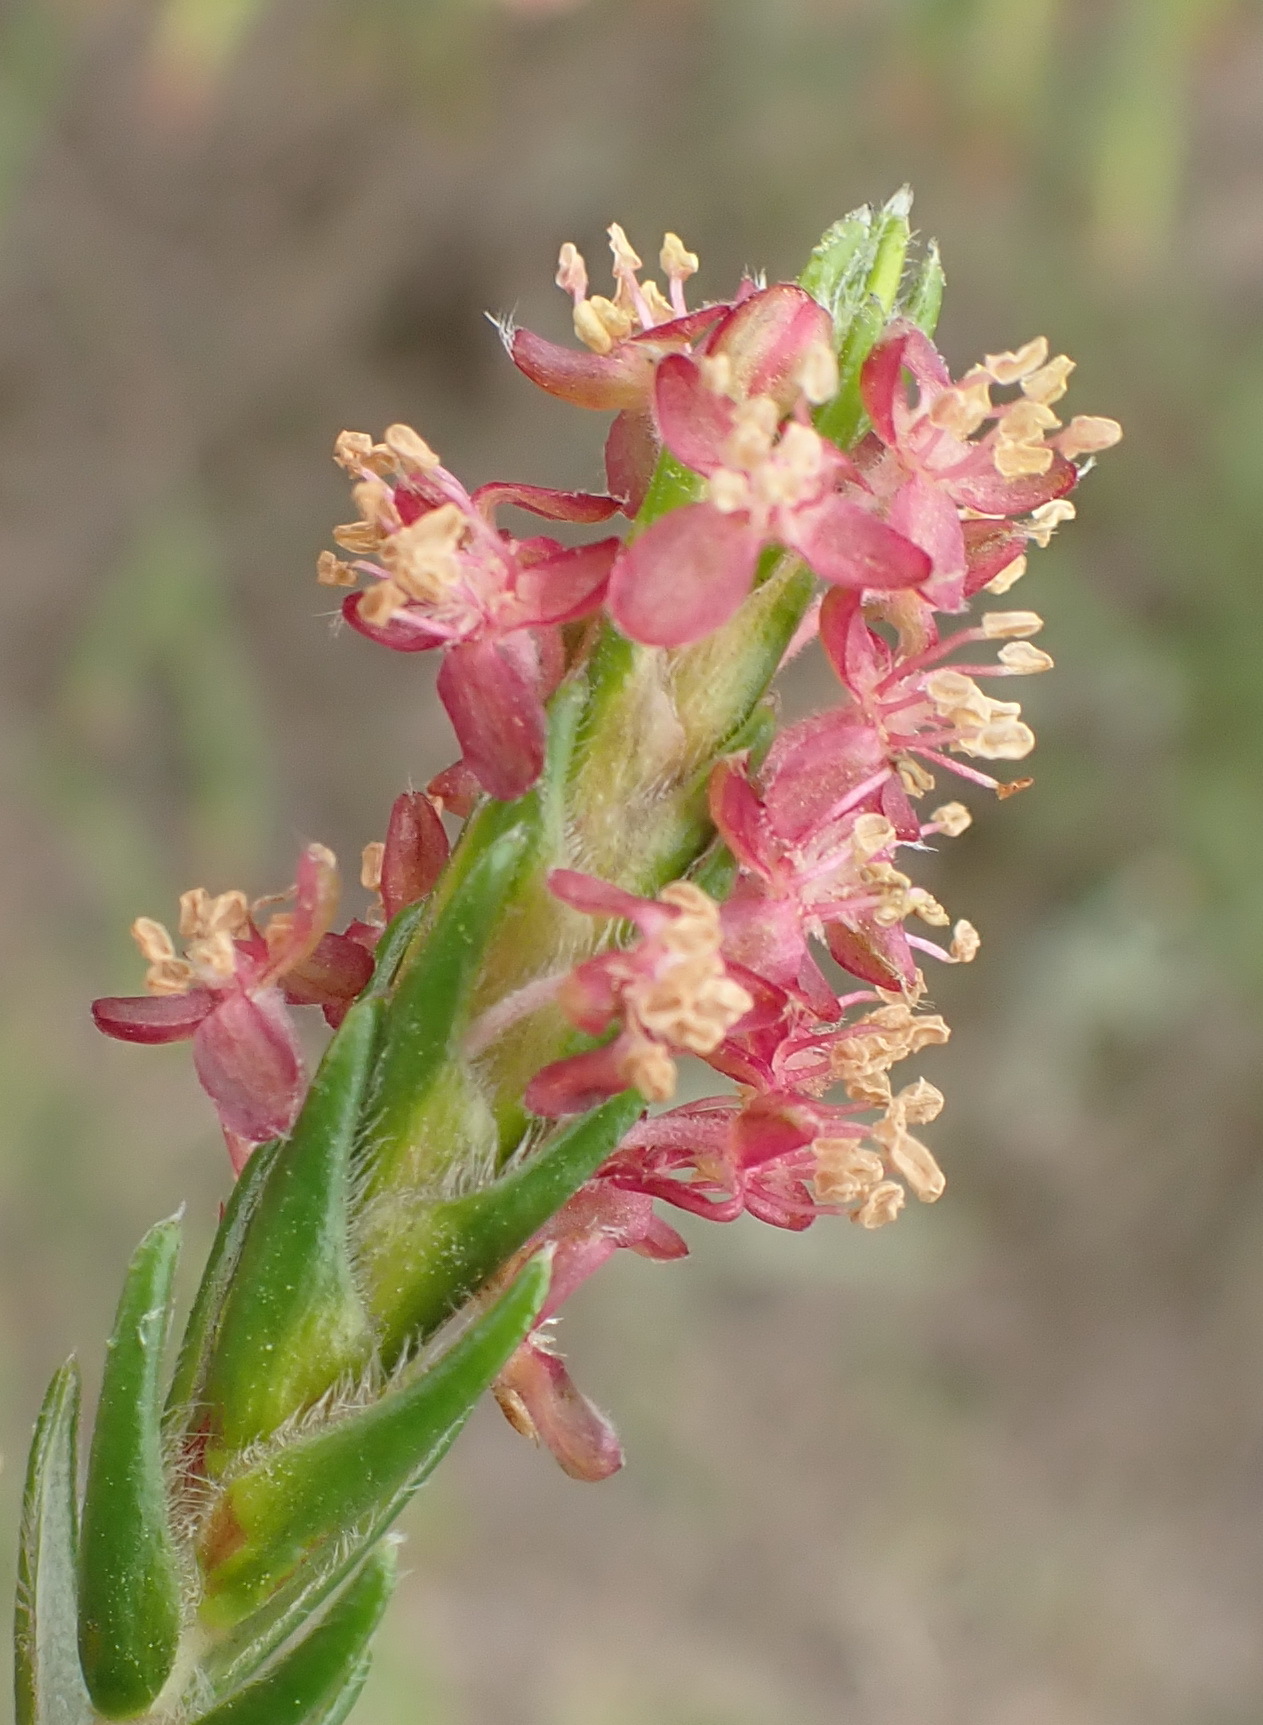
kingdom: Plantae
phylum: Tracheophyta
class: Magnoliopsida
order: Malvales
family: Thymelaeaceae
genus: Passerina
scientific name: Passerina falcifolia
